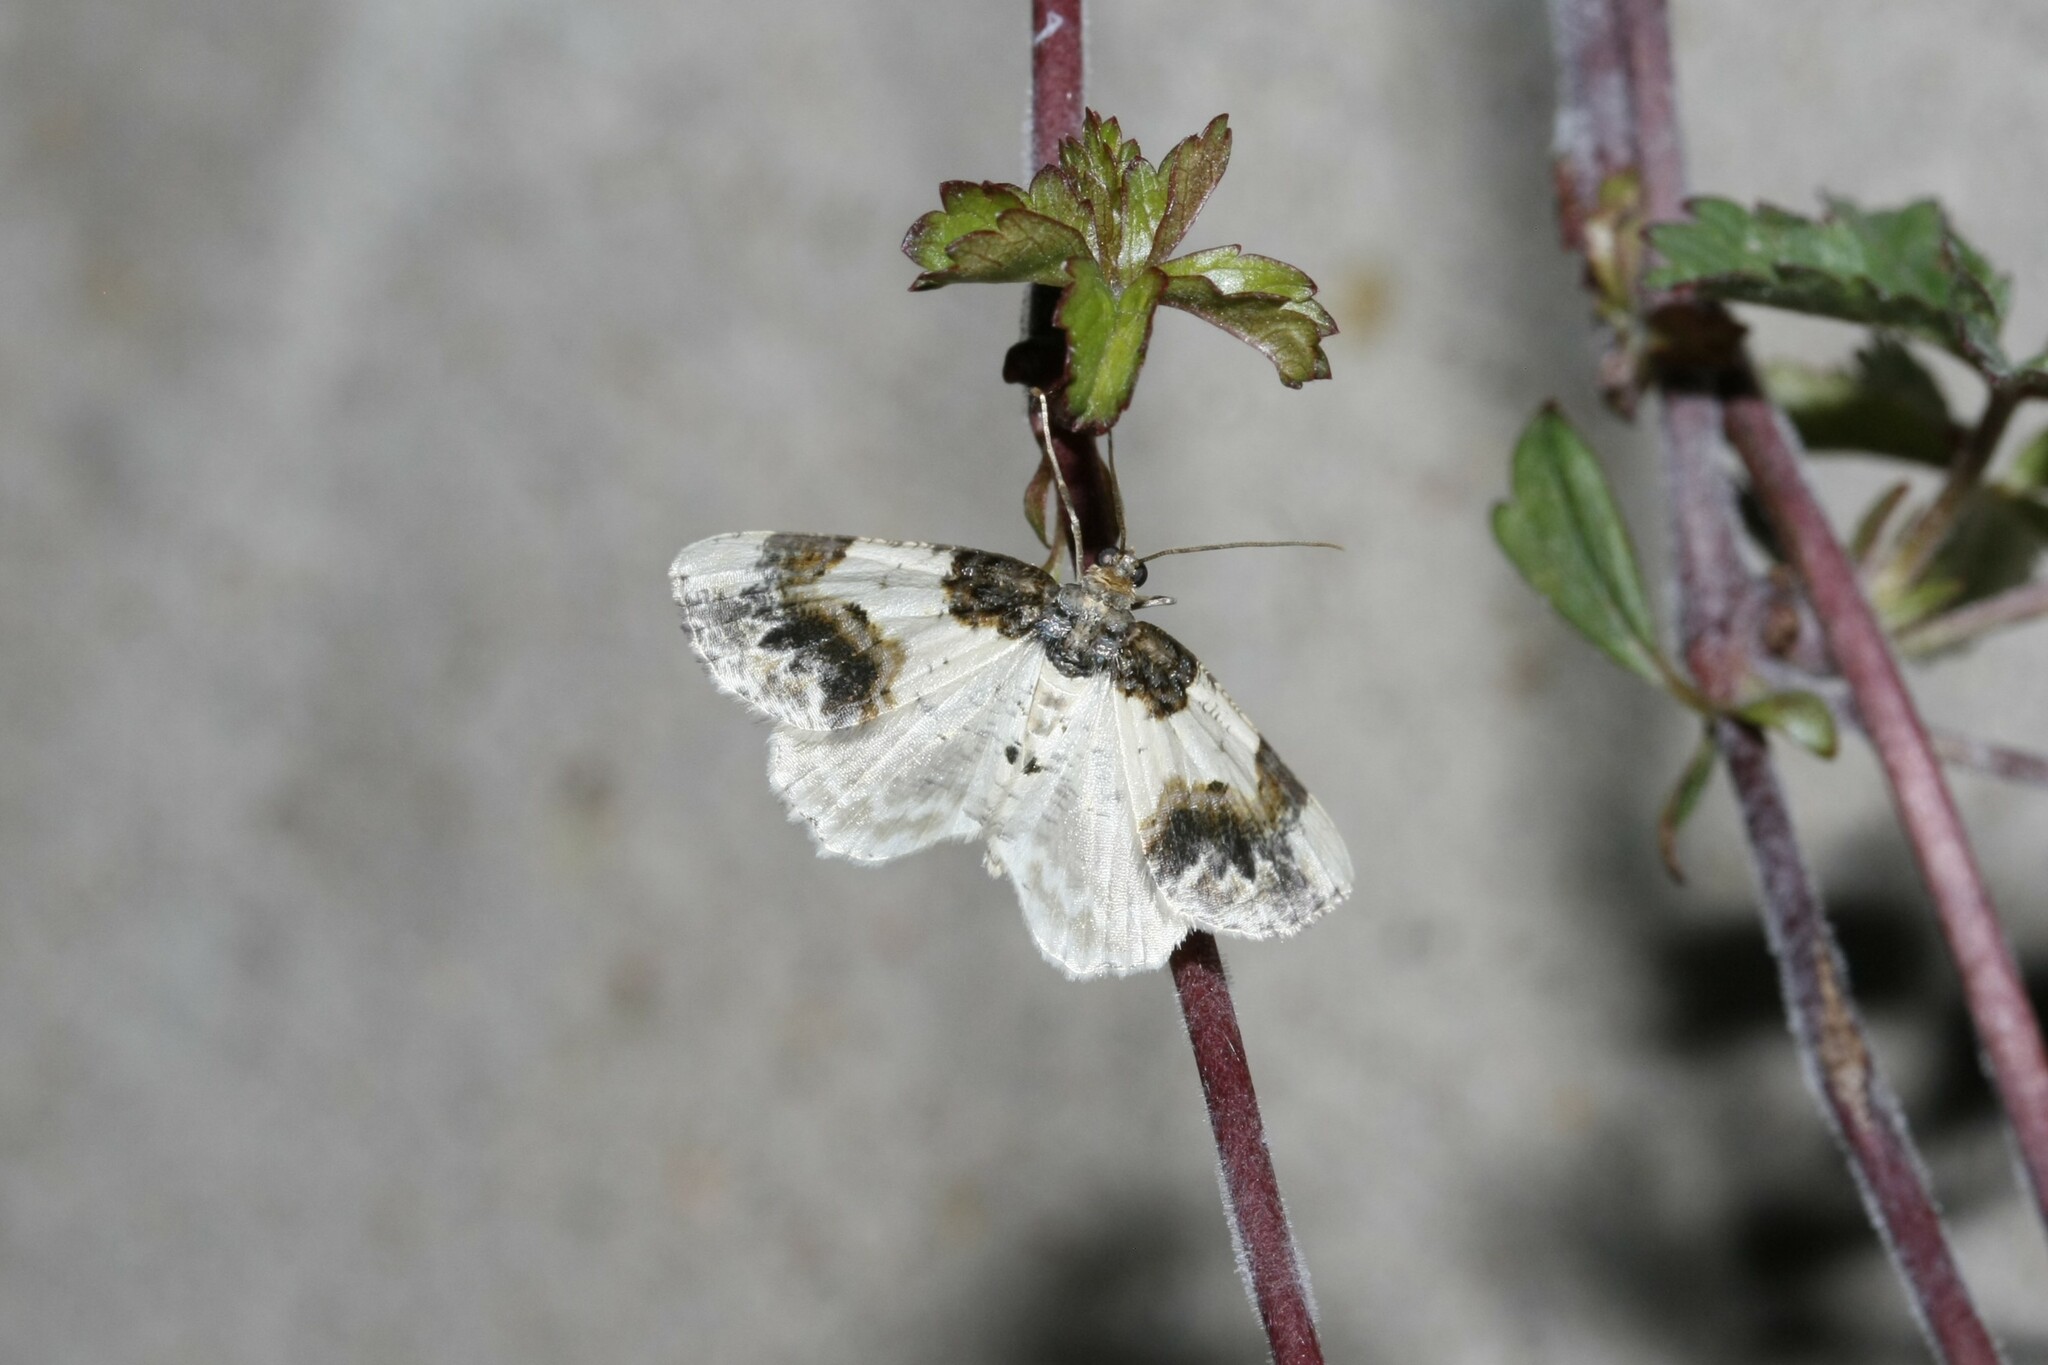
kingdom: Animalia
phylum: Arthropoda
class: Insecta
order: Lepidoptera
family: Geometridae
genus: Ligdia
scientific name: Ligdia adustata
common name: Scorched carpet
